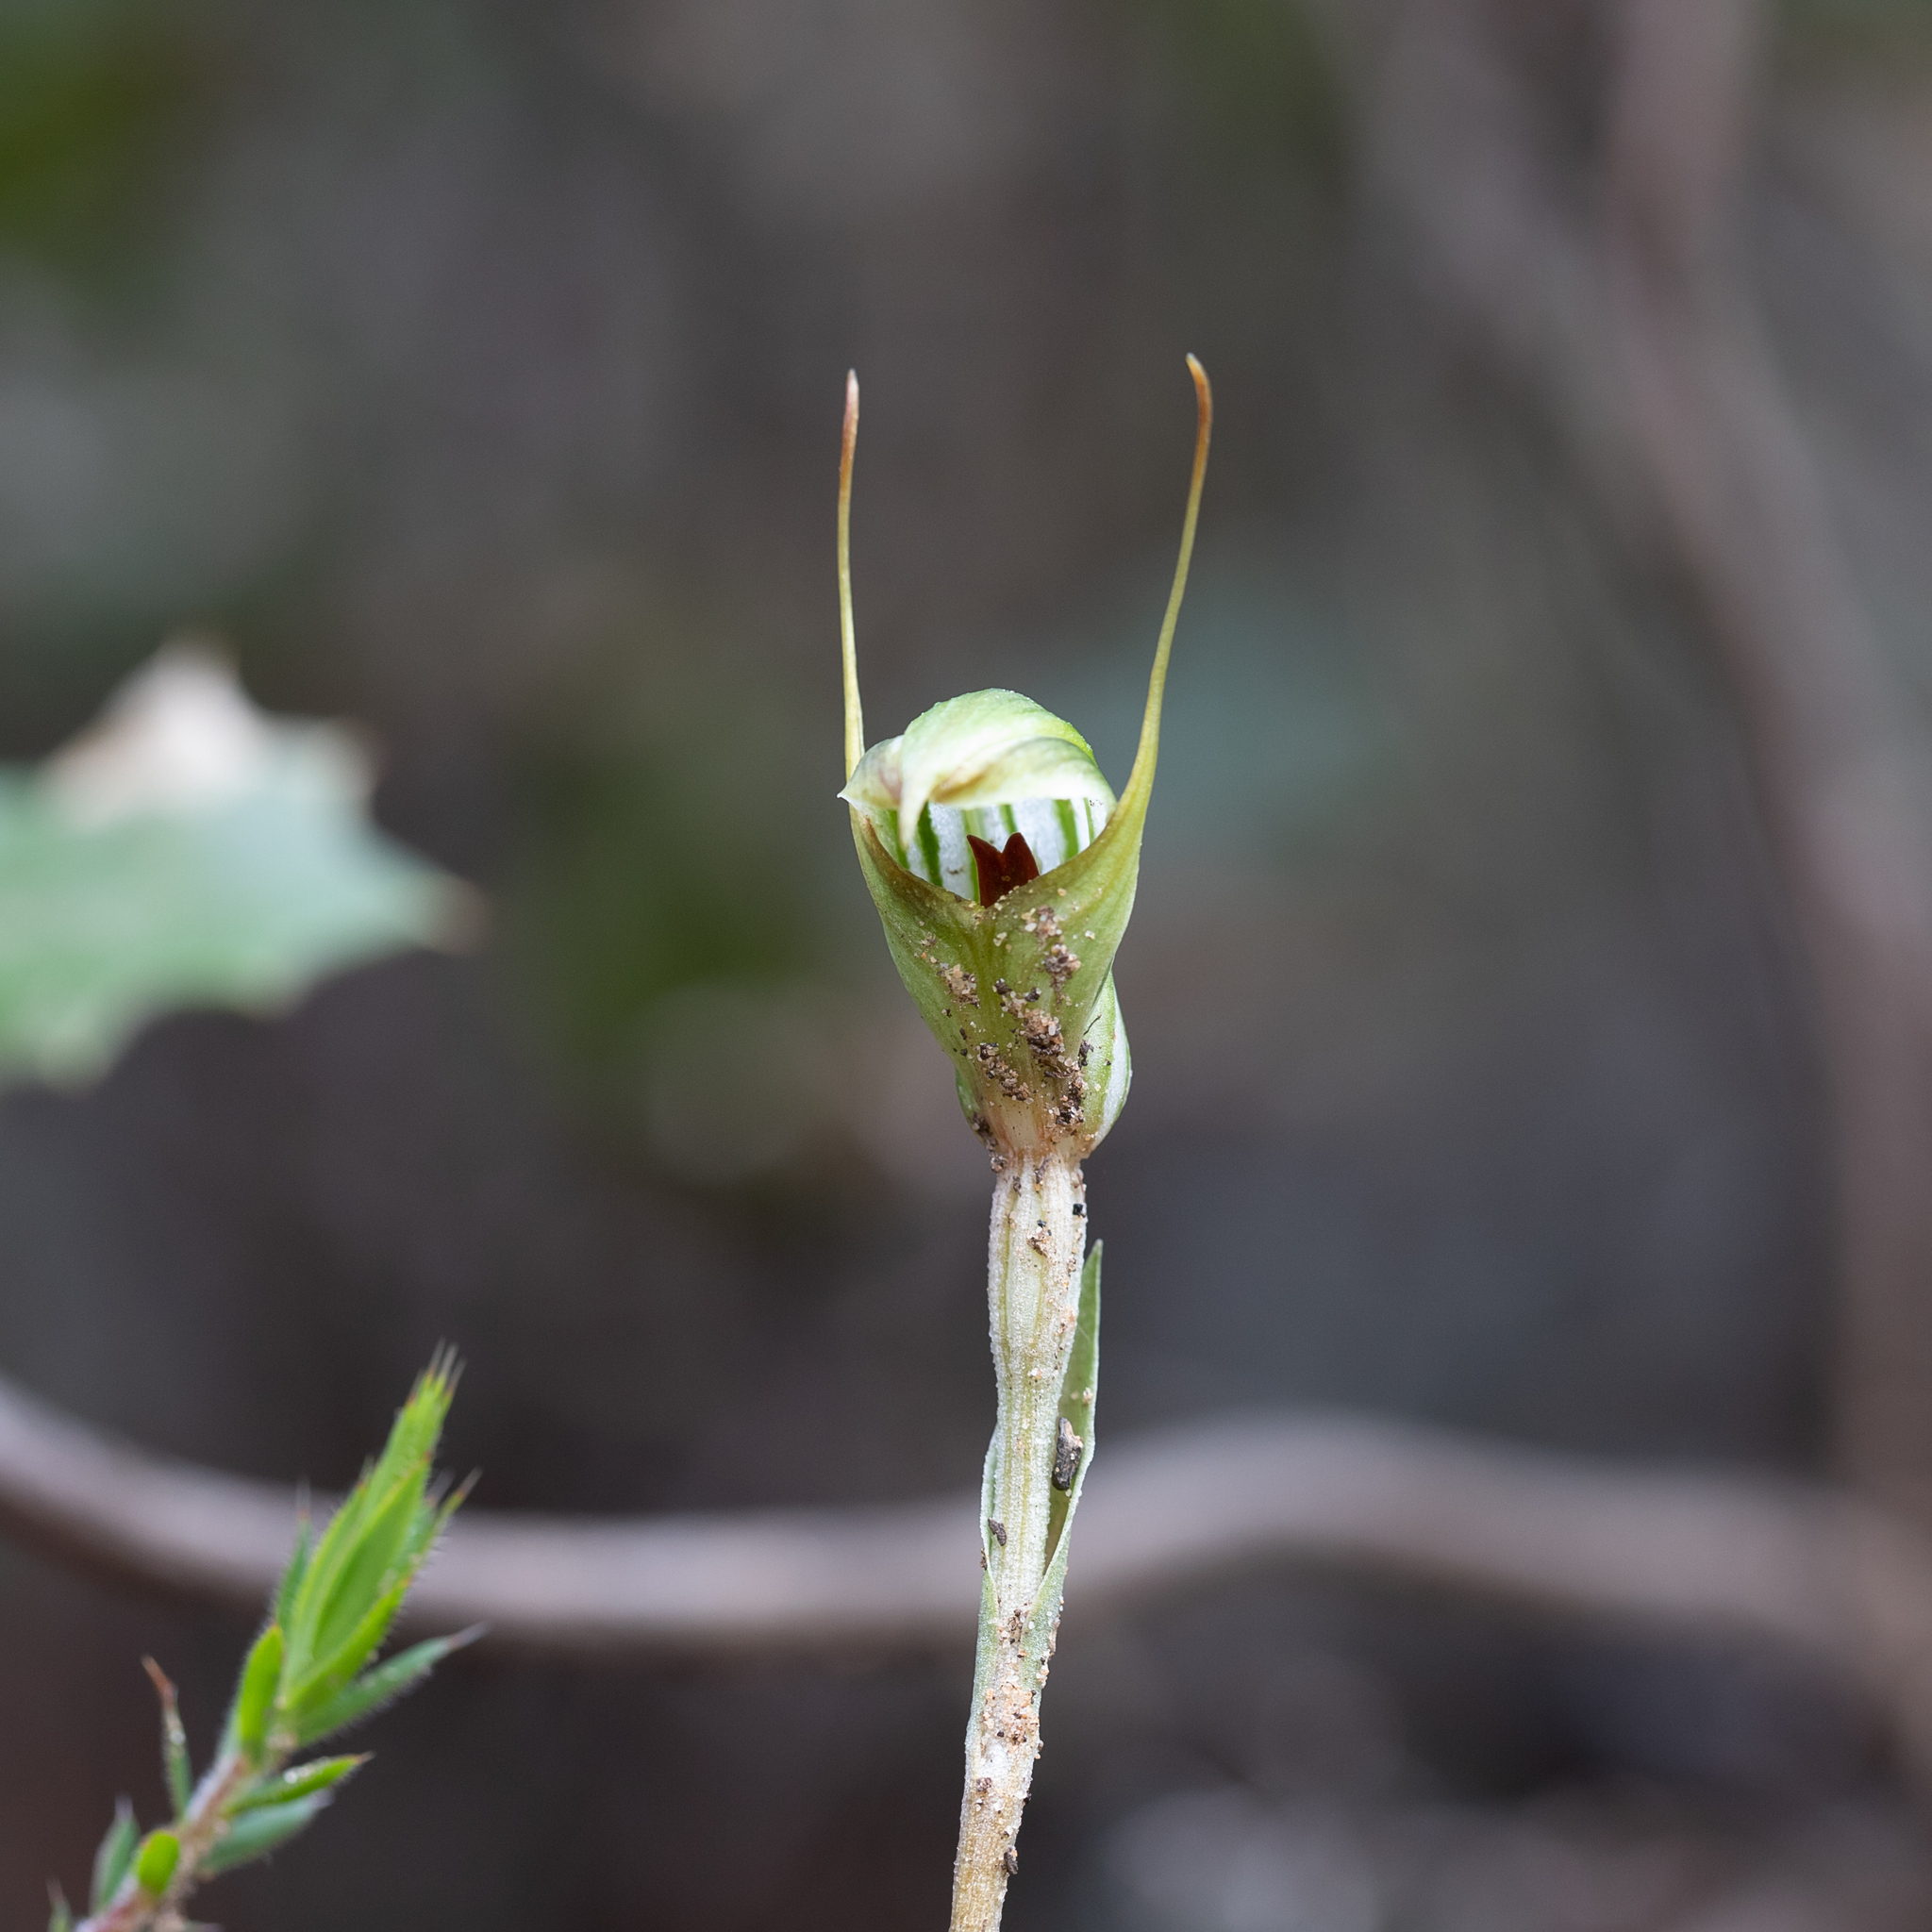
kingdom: Plantae
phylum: Tracheophyta
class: Liliopsida
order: Asparagales
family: Orchidaceae
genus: Pterostylis
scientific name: Pterostylis concinna
